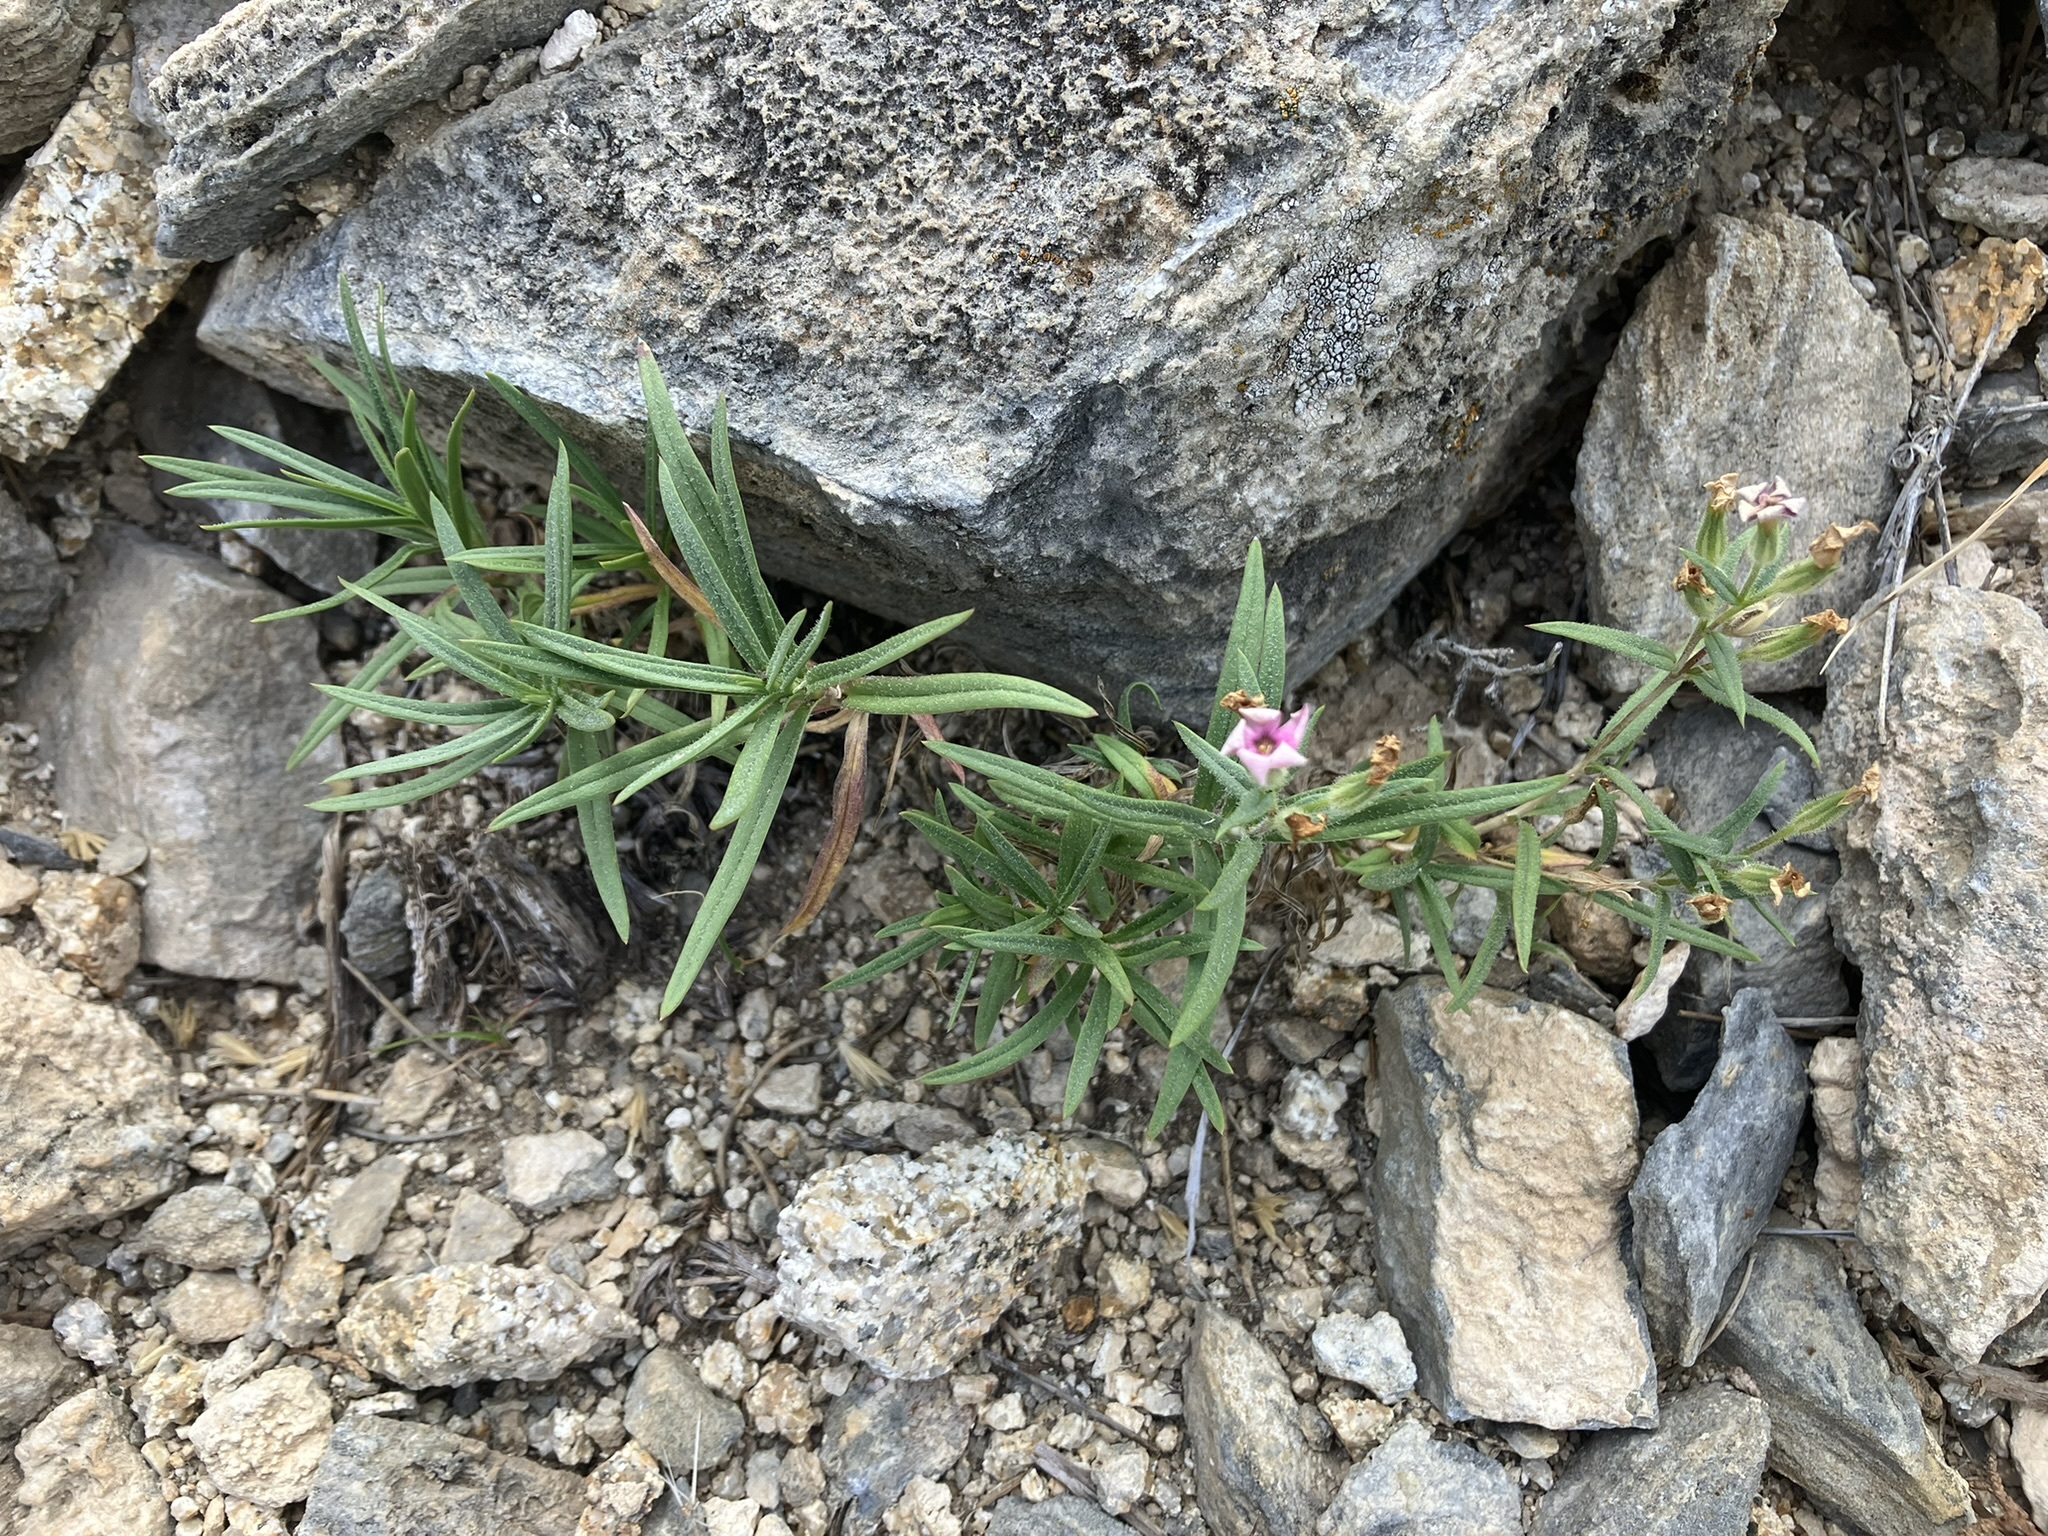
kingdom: Plantae
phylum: Tracheophyta
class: Magnoliopsida
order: Ericales
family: Polemoniaceae
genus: Phlox
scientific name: Phlox longifolia
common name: Longleaf phlox
